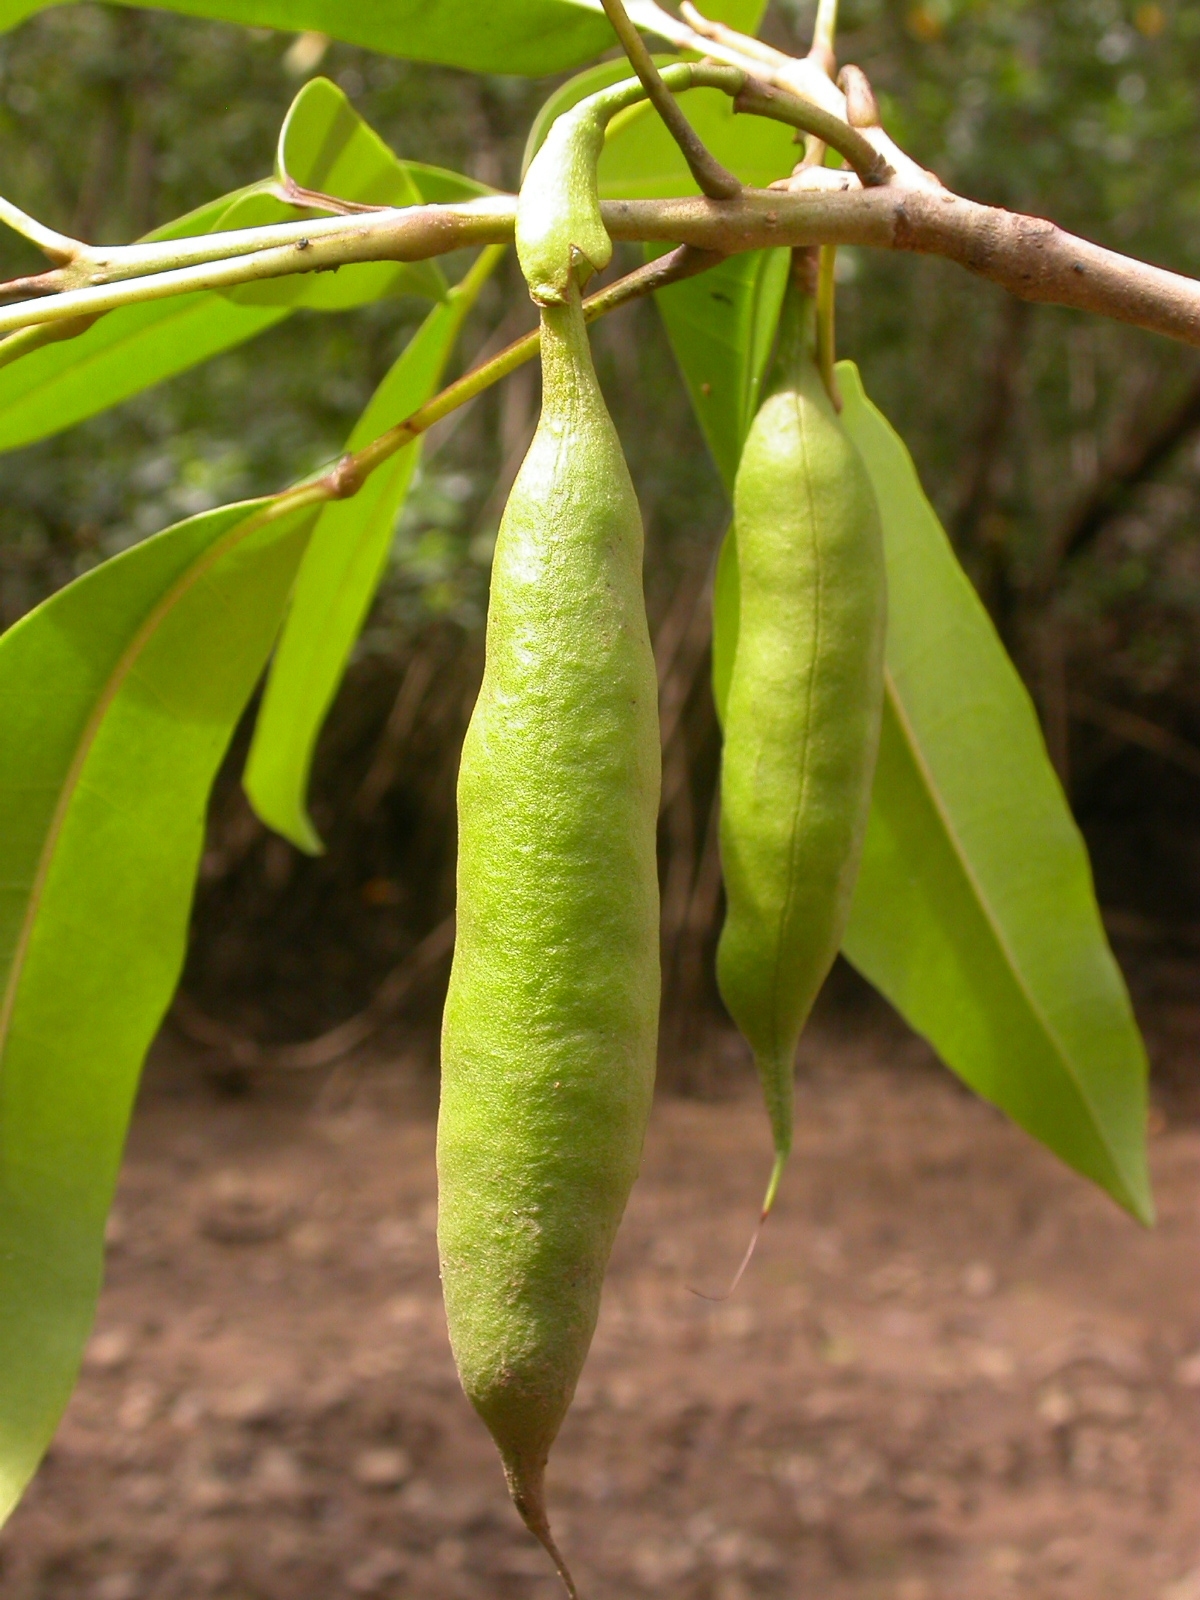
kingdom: Plantae
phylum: Tracheophyta
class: Magnoliopsida
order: Lamiales
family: Bignoniaceae
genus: Tabebuia
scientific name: Tabebuia palustris
